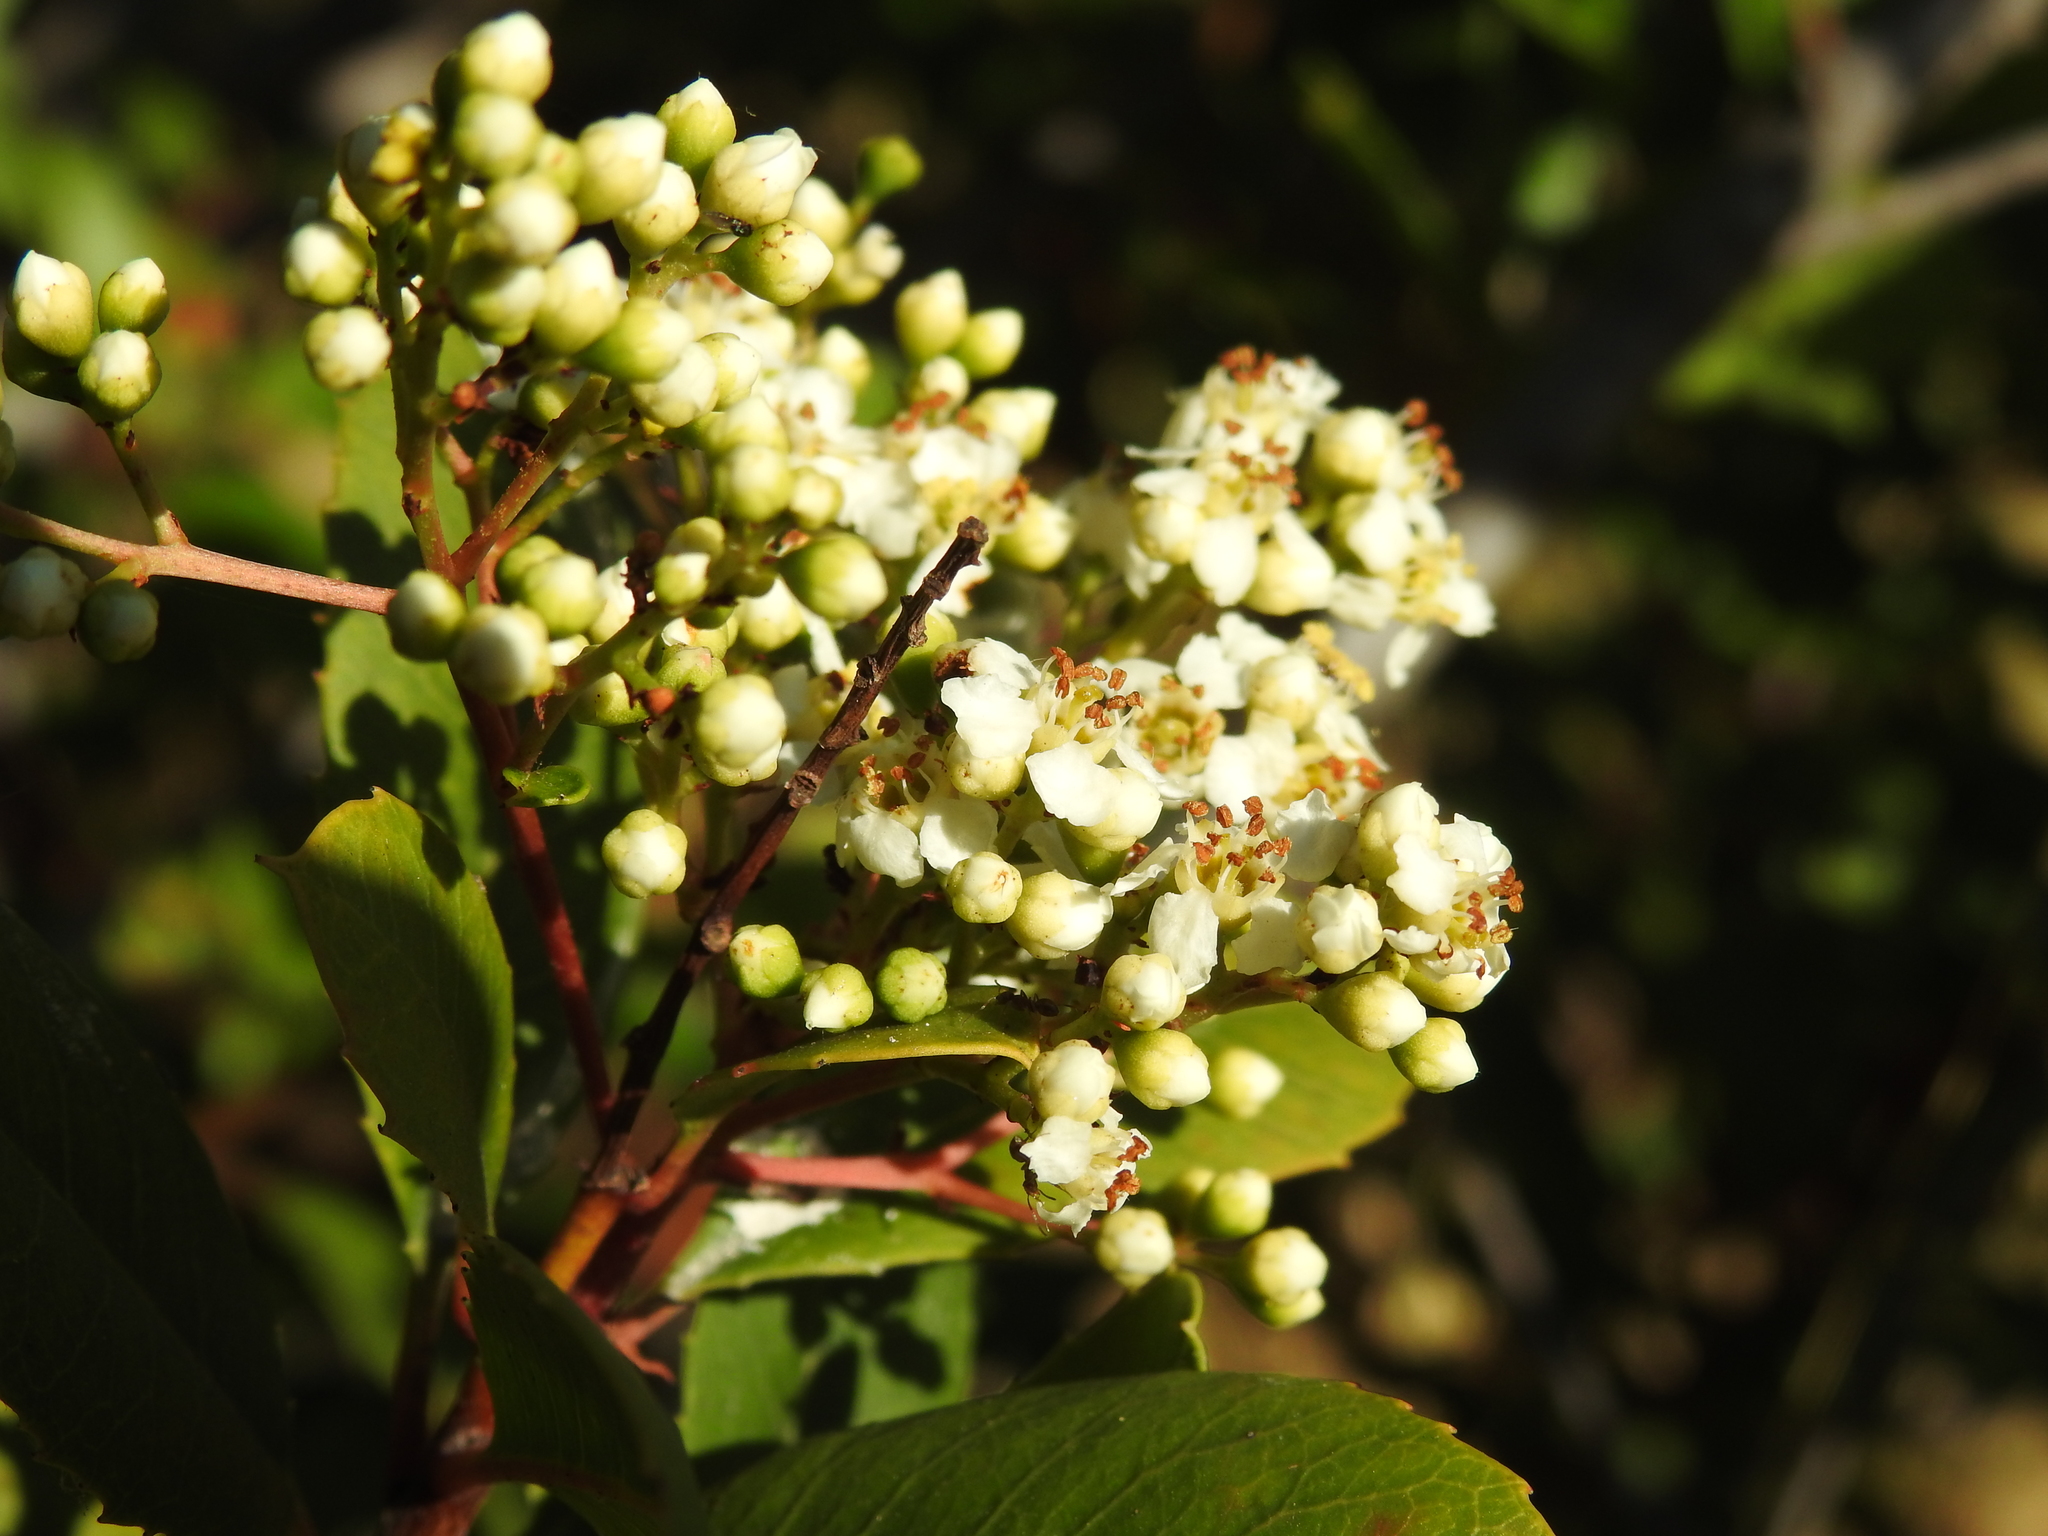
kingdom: Plantae
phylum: Tracheophyta
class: Magnoliopsida
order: Rosales
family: Rosaceae
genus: Heteromeles
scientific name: Heteromeles arbutifolia
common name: California-holly
